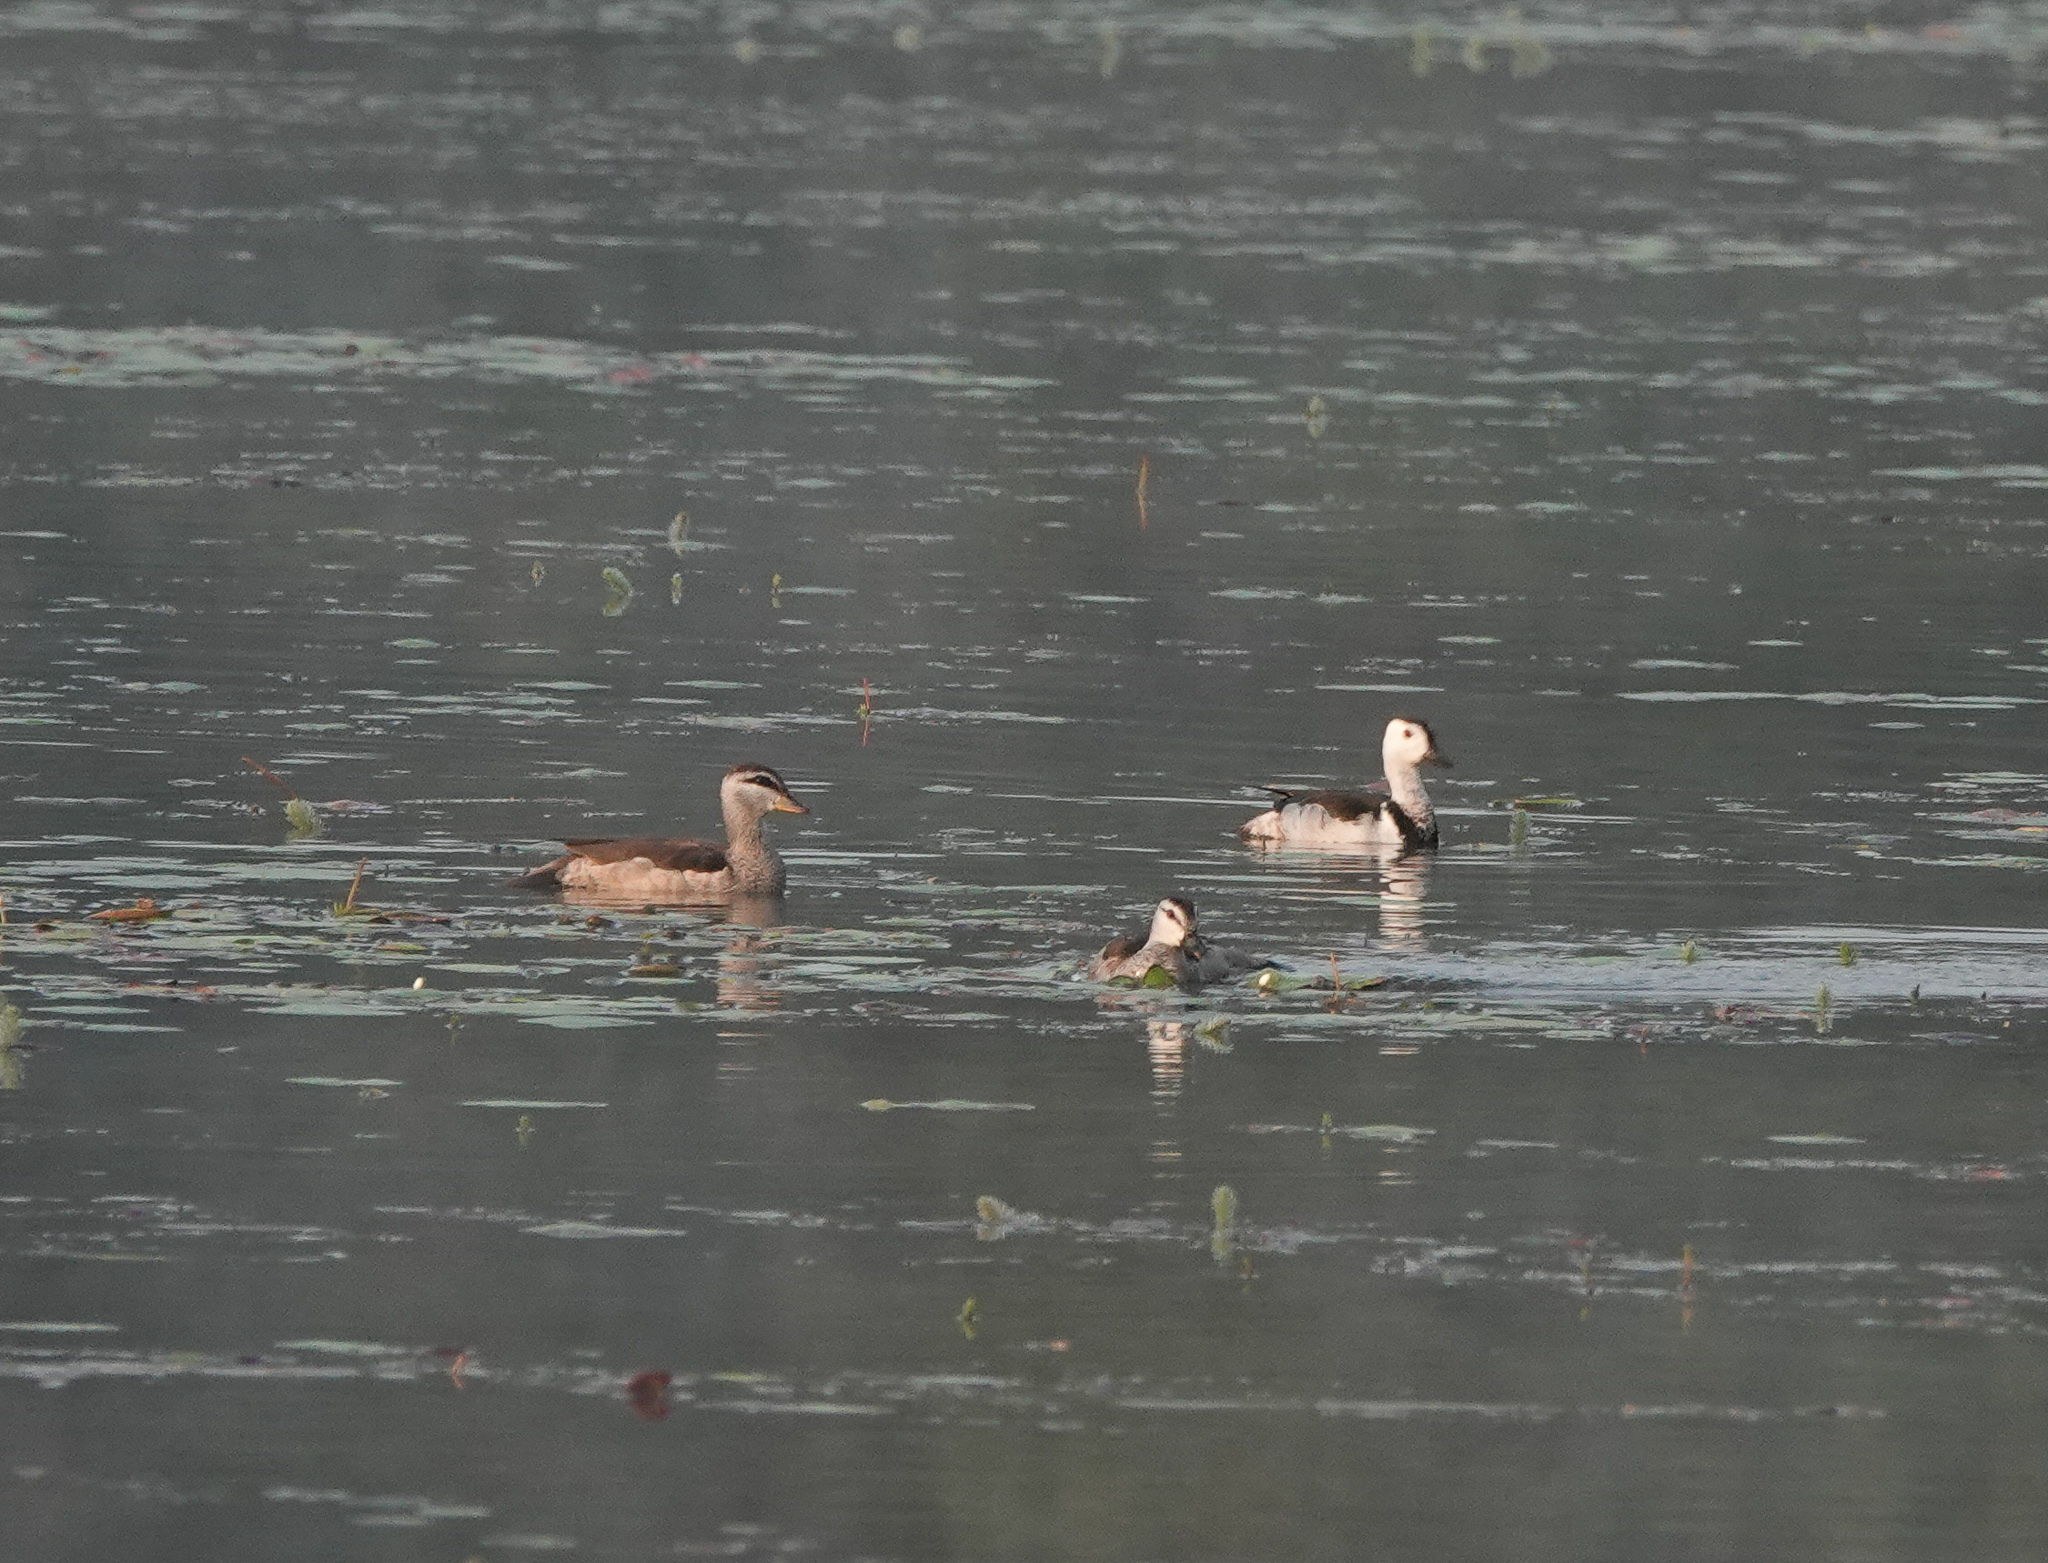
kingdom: Animalia
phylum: Chordata
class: Aves
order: Anseriformes
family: Anatidae
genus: Nettapus
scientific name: Nettapus coromandelianus
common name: Cotton pygmy-goose
